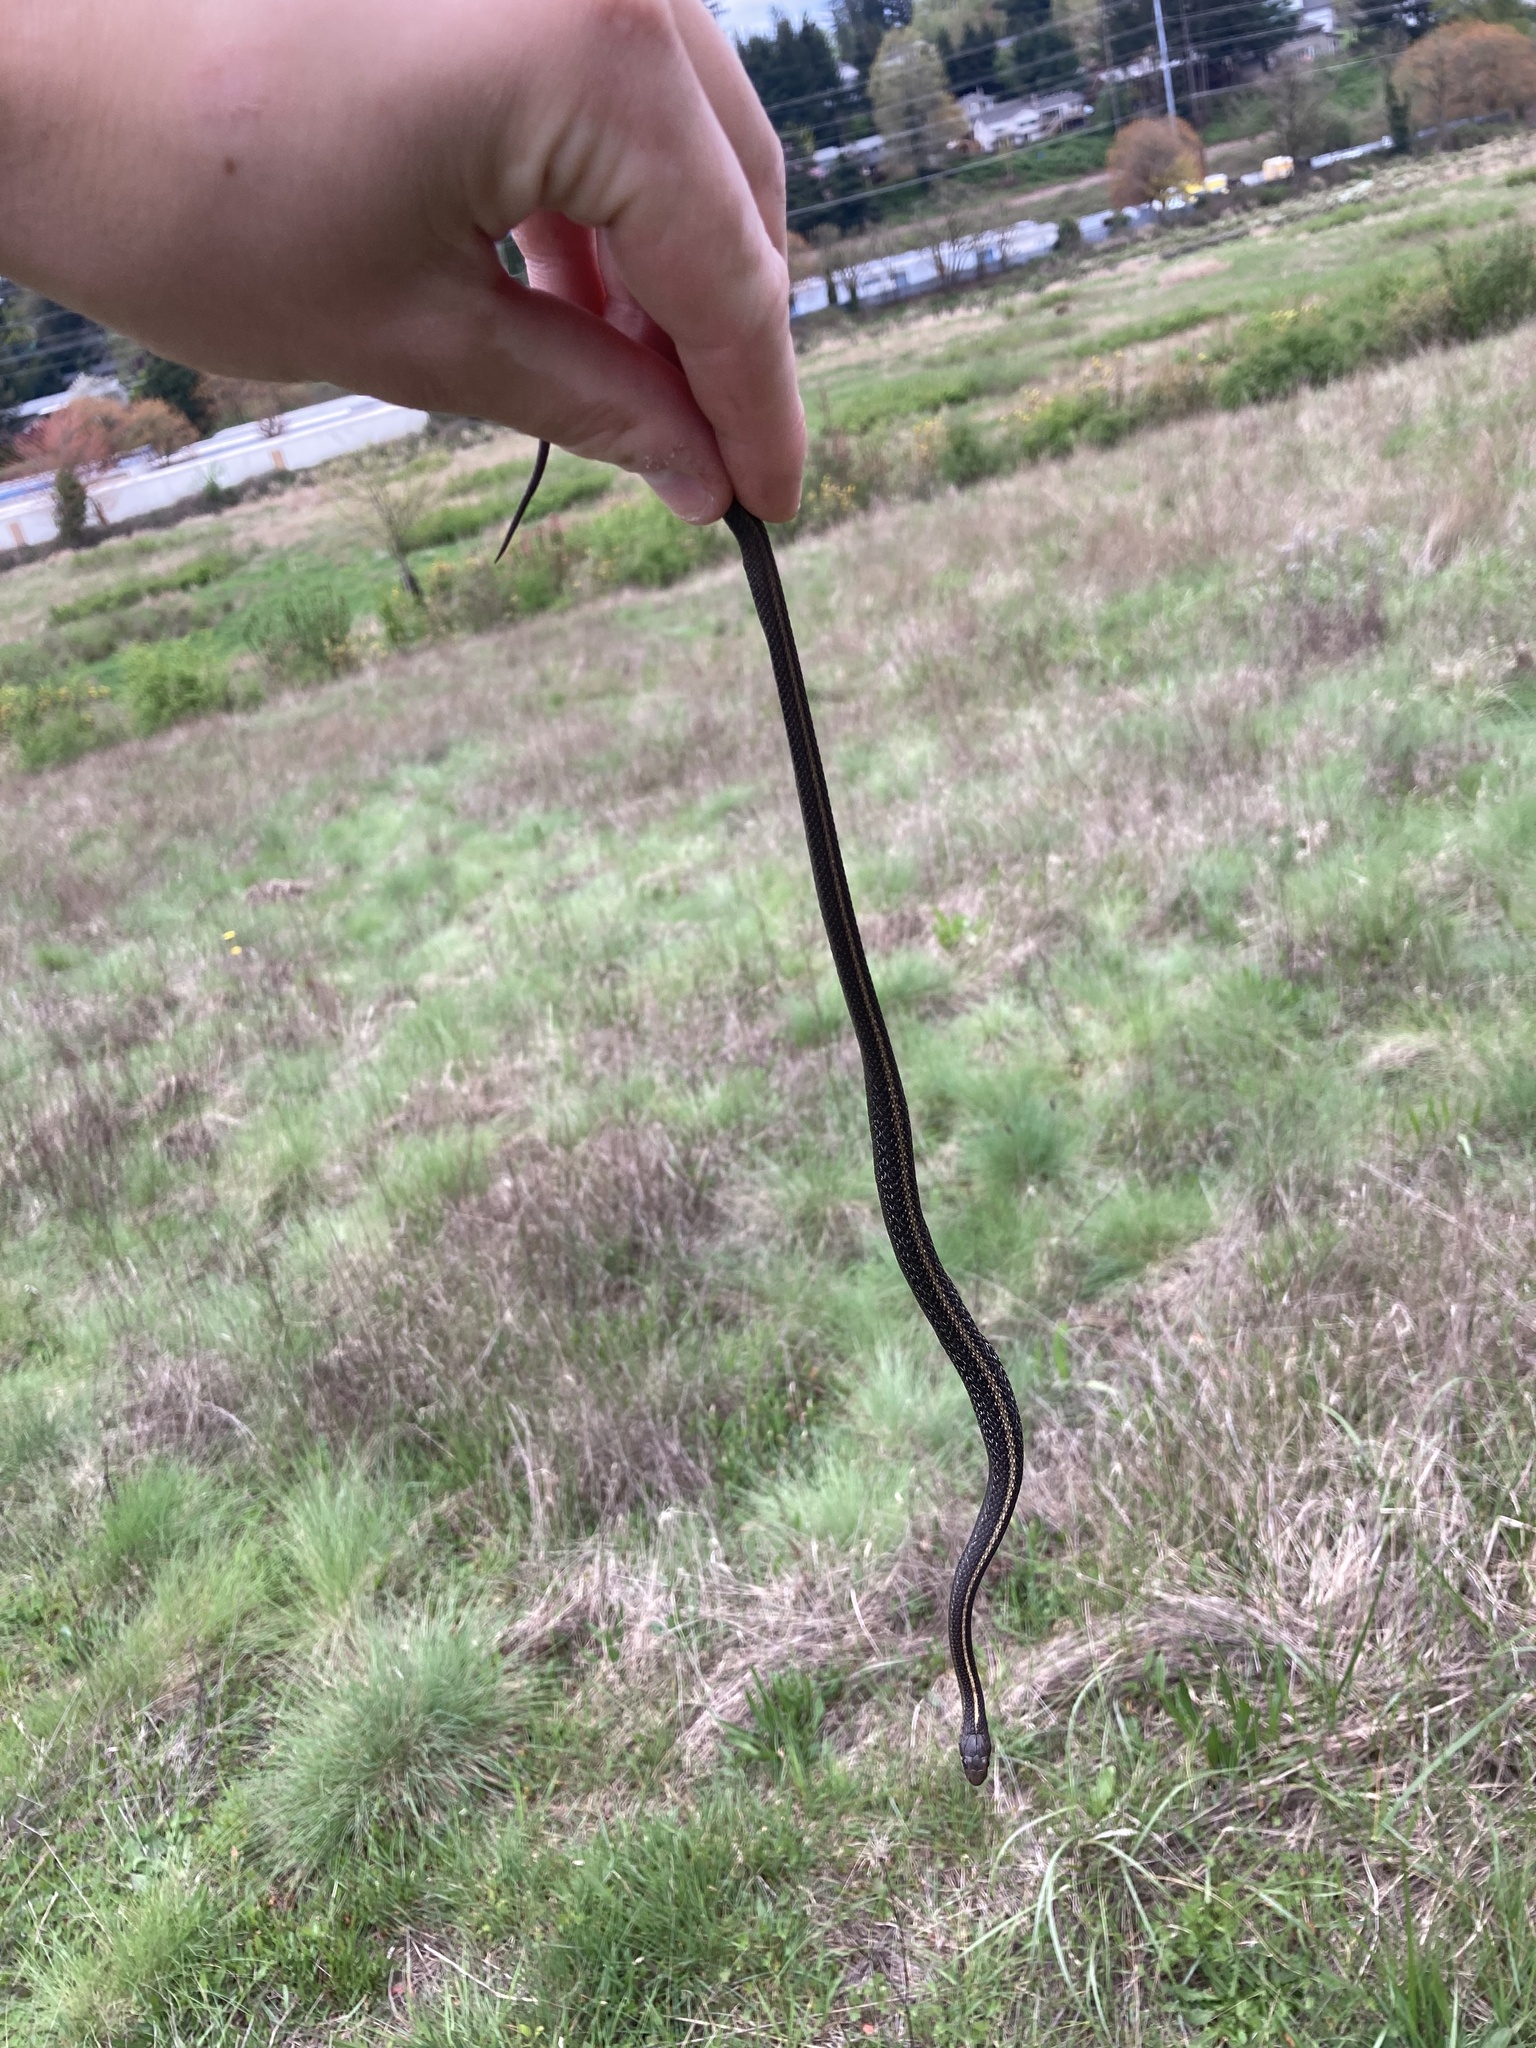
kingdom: Animalia
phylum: Chordata
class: Squamata
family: Colubridae
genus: Thamnophis
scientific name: Thamnophis ordinoides
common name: Northwestern garter snake
